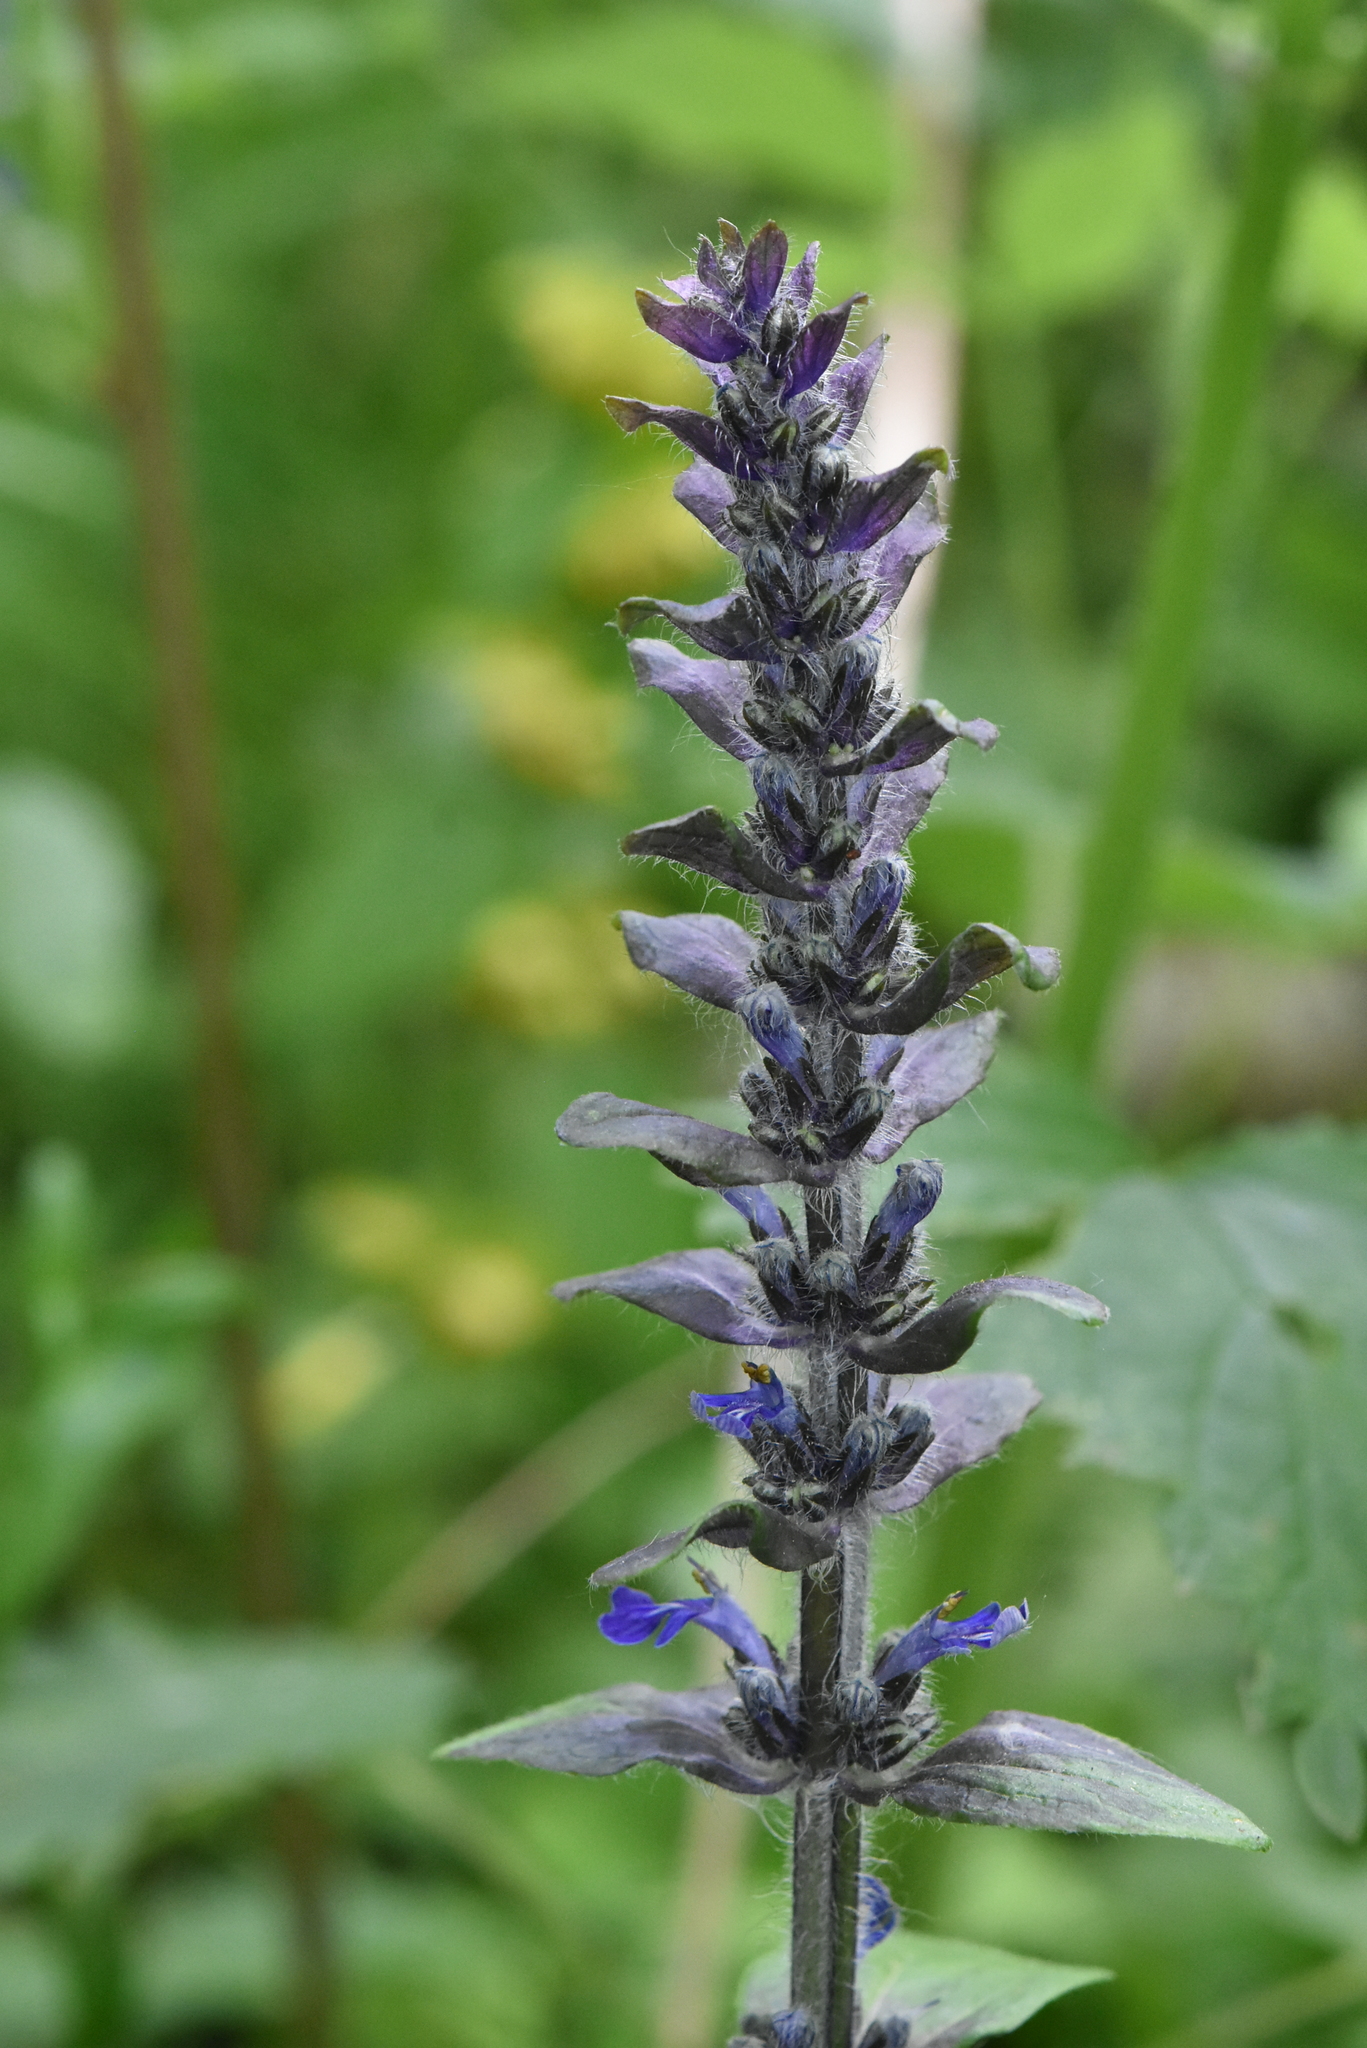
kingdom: Plantae
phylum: Tracheophyta
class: Magnoliopsida
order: Lamiales
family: Lamiaceae
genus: Ajuga
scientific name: Ajuga reptans
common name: Bugle
